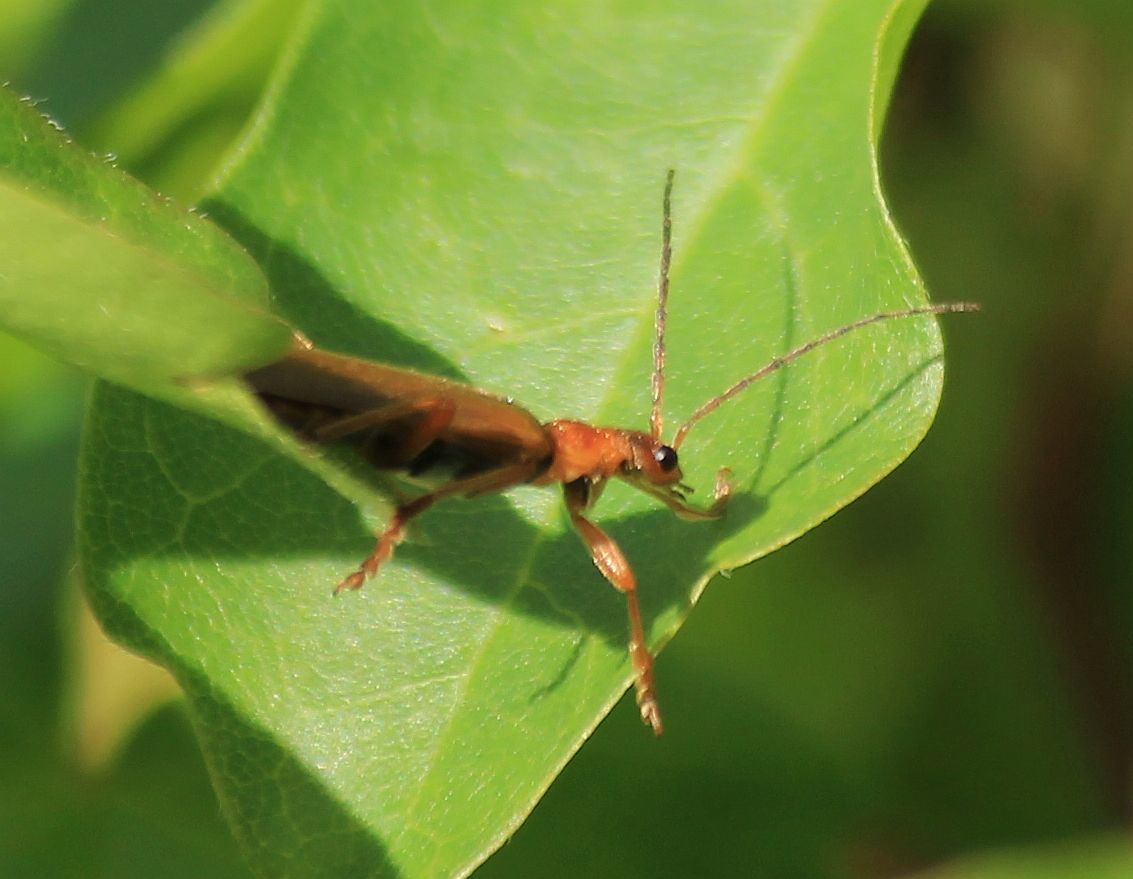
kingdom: Animalia
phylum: Arthropoda
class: Insecta
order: Coleoptera
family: Cantharidae
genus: Cantharis
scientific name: Cantharis rufa
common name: Red-spotted soldier beetle
